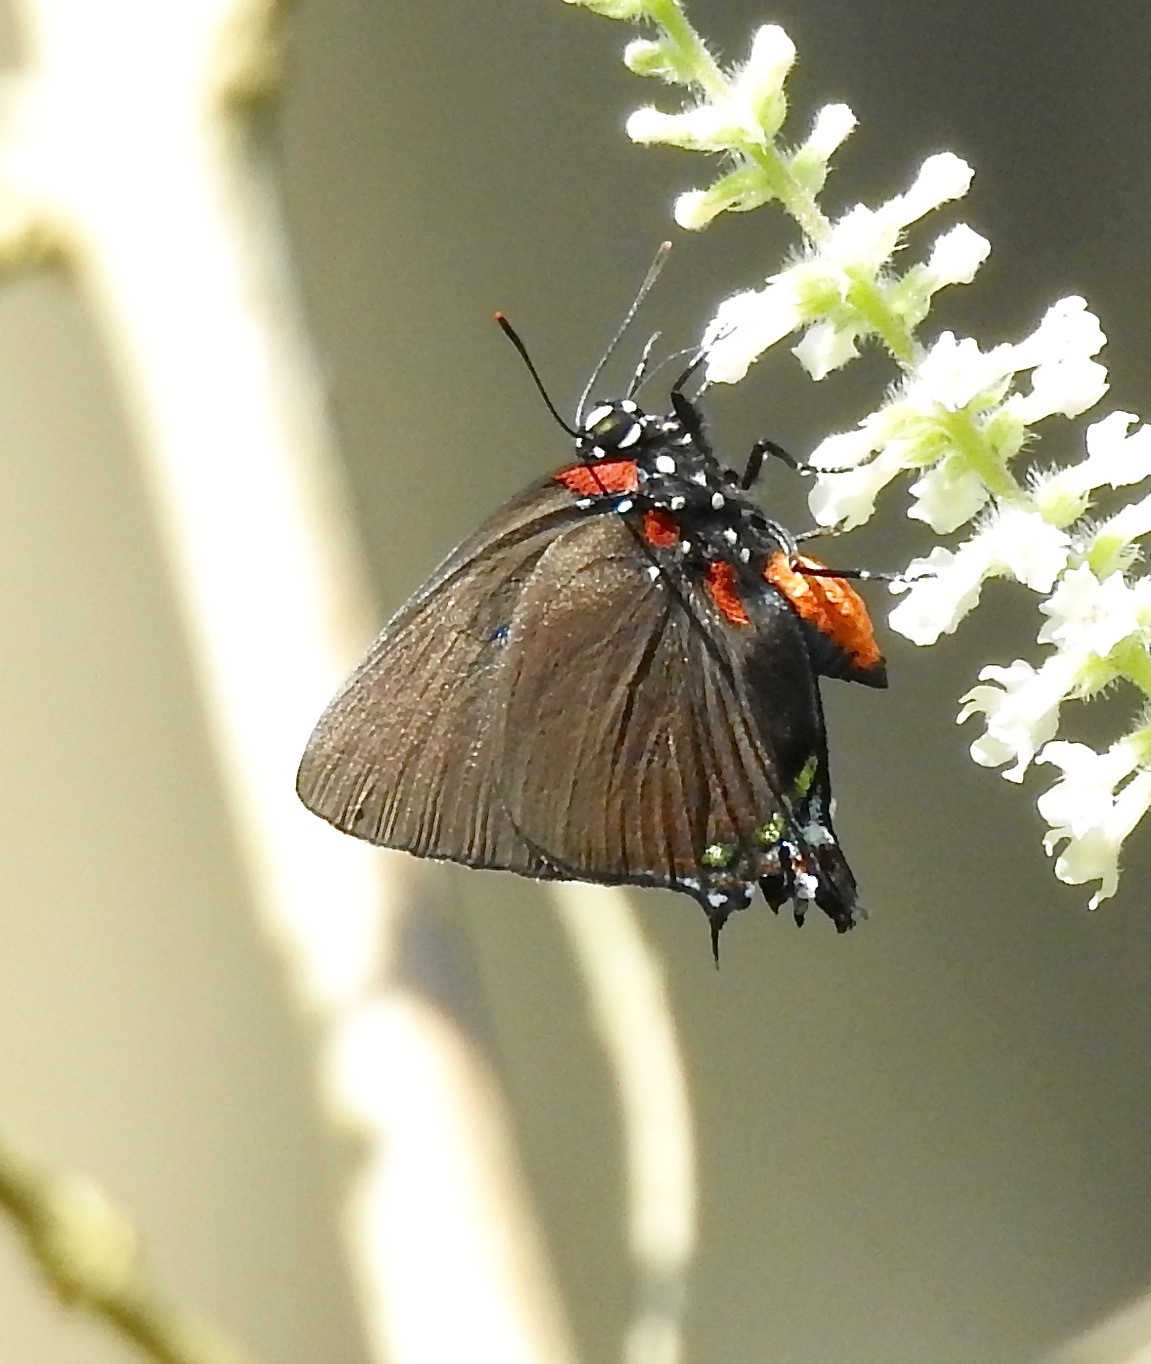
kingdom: Animalia
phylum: Arthropoda
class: Insecta
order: Lepidoptera
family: Lycaenidae
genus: Atlides
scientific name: Atlides halesus
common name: Great purple hairstreak
